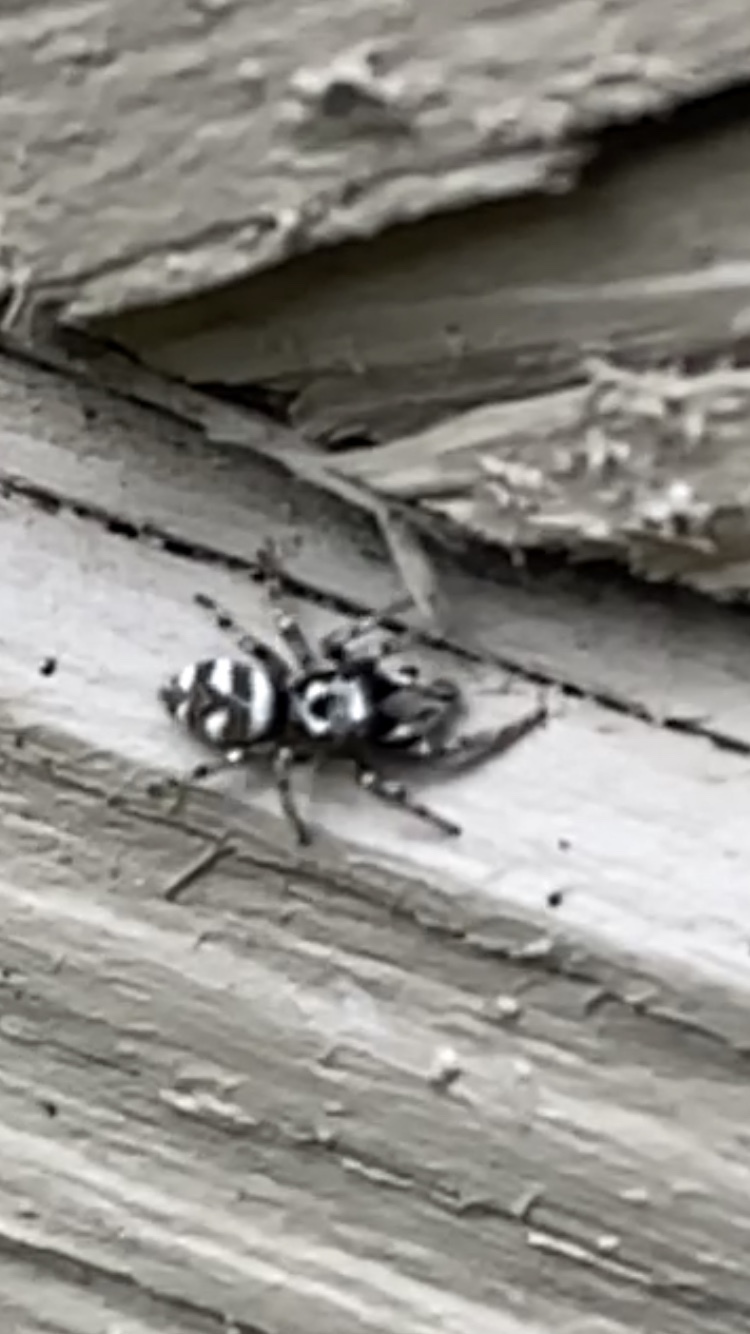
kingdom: Animalia
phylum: Arthropoda
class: Arachnida
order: Araneae
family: Salticidae
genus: Salticus
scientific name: Salticus scenicus
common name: Zebra jumper
